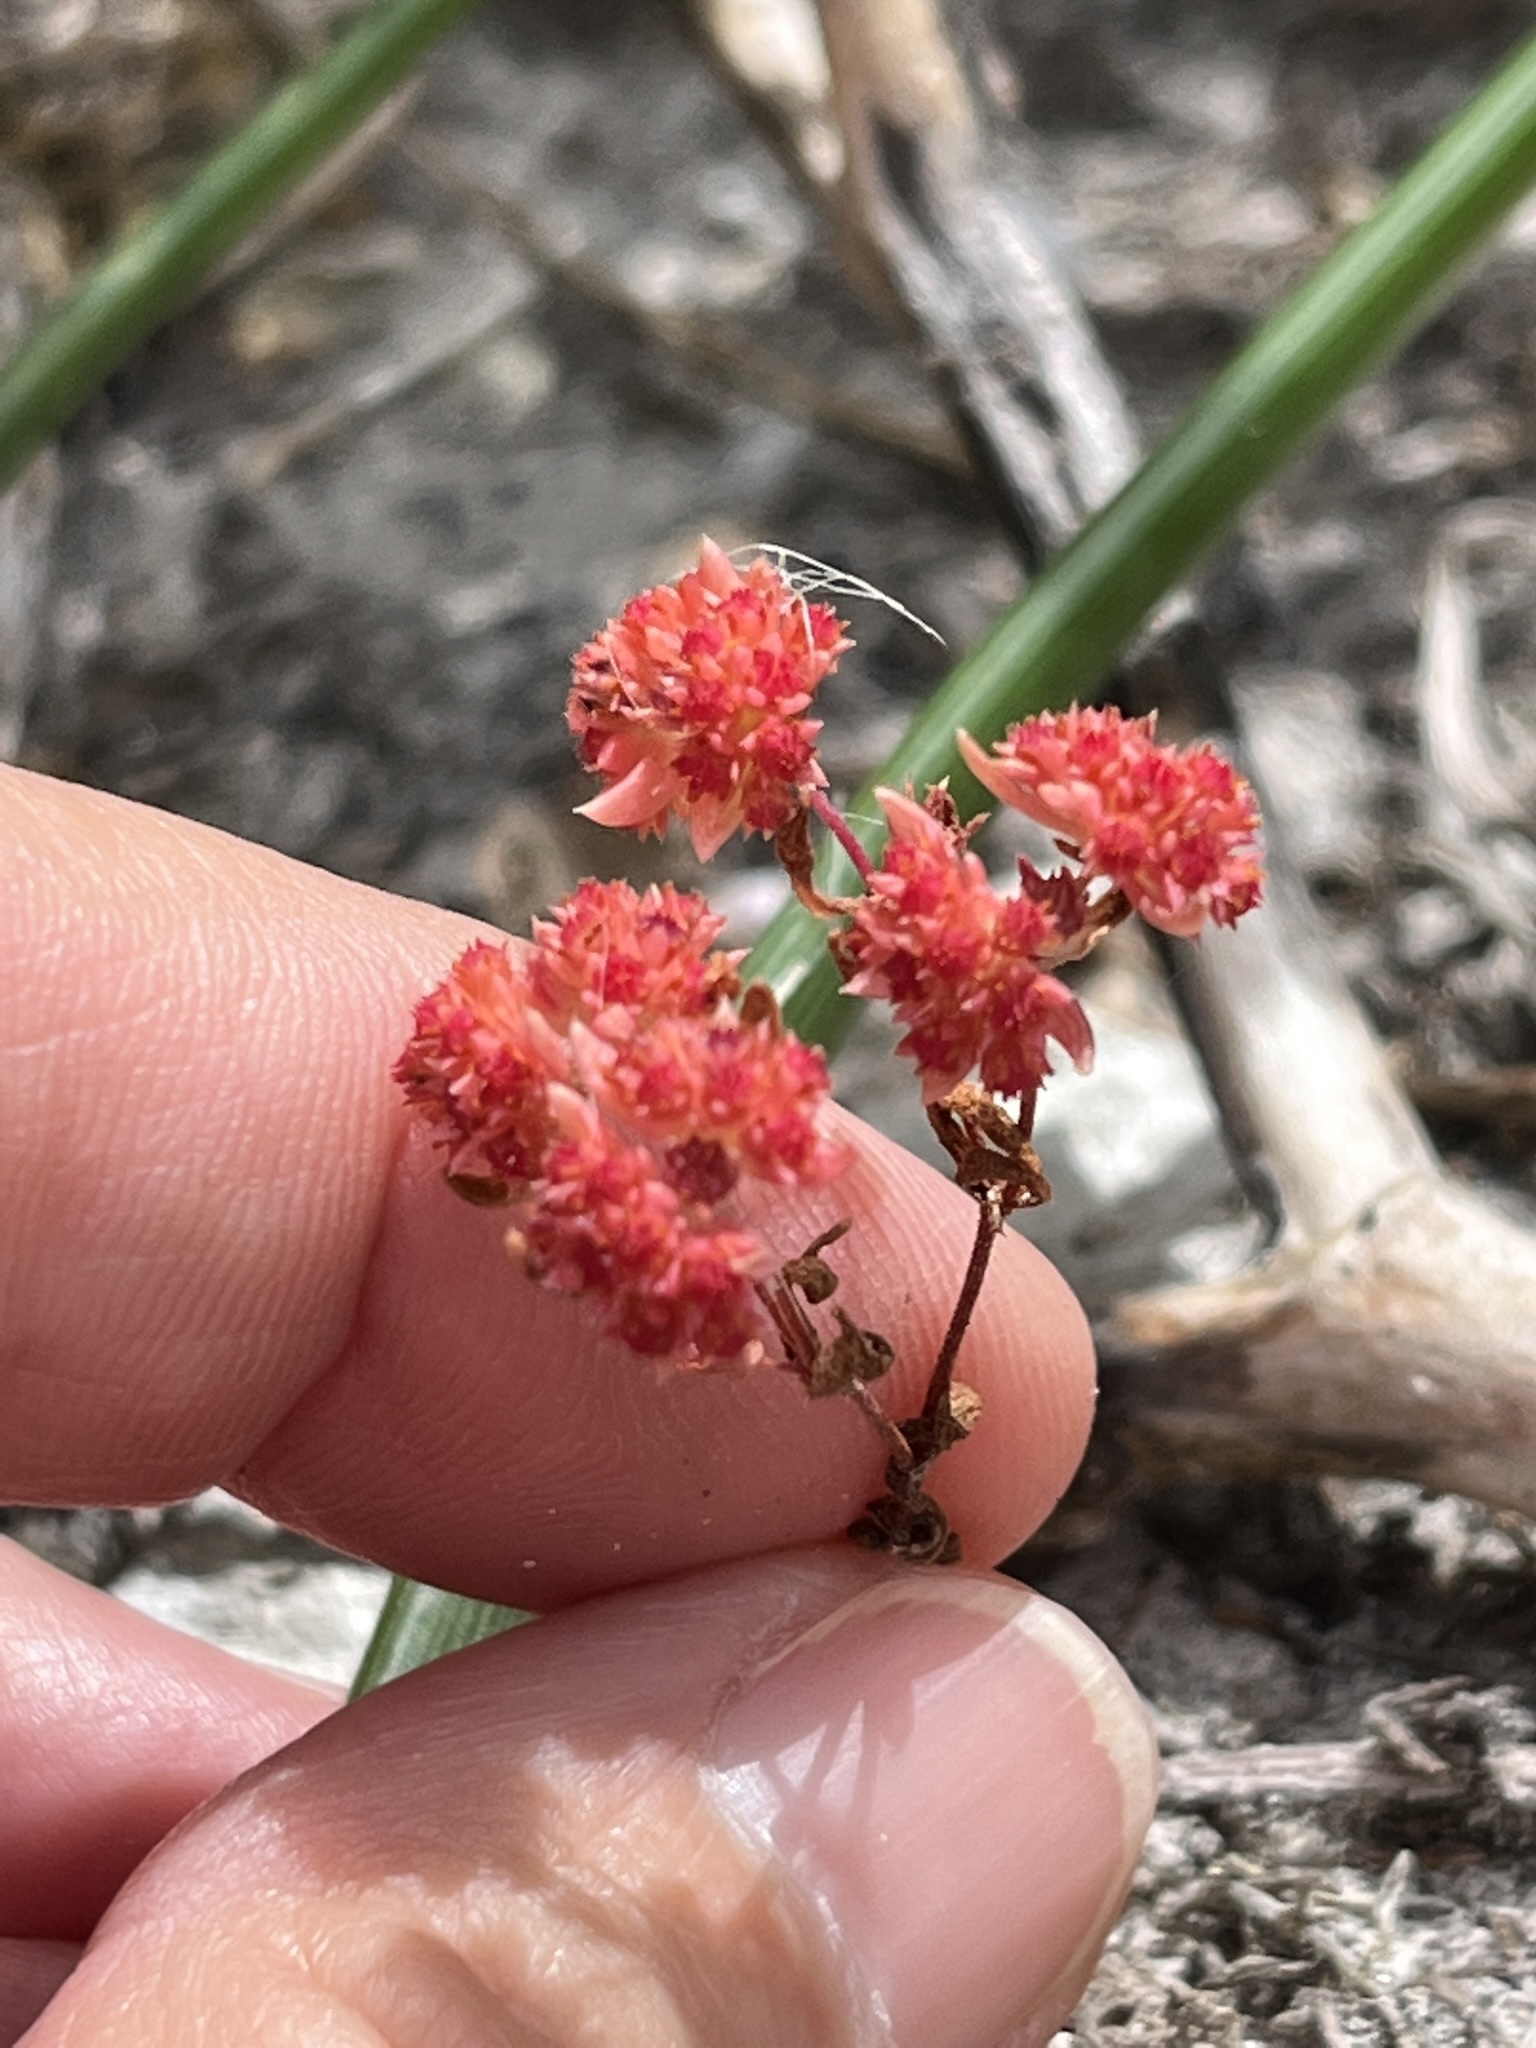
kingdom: Plantae
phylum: Tracheophyta
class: Magnoliopsida
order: Saxifragales
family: Crassulaceae
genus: Crassula
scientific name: Crassula glomerata
